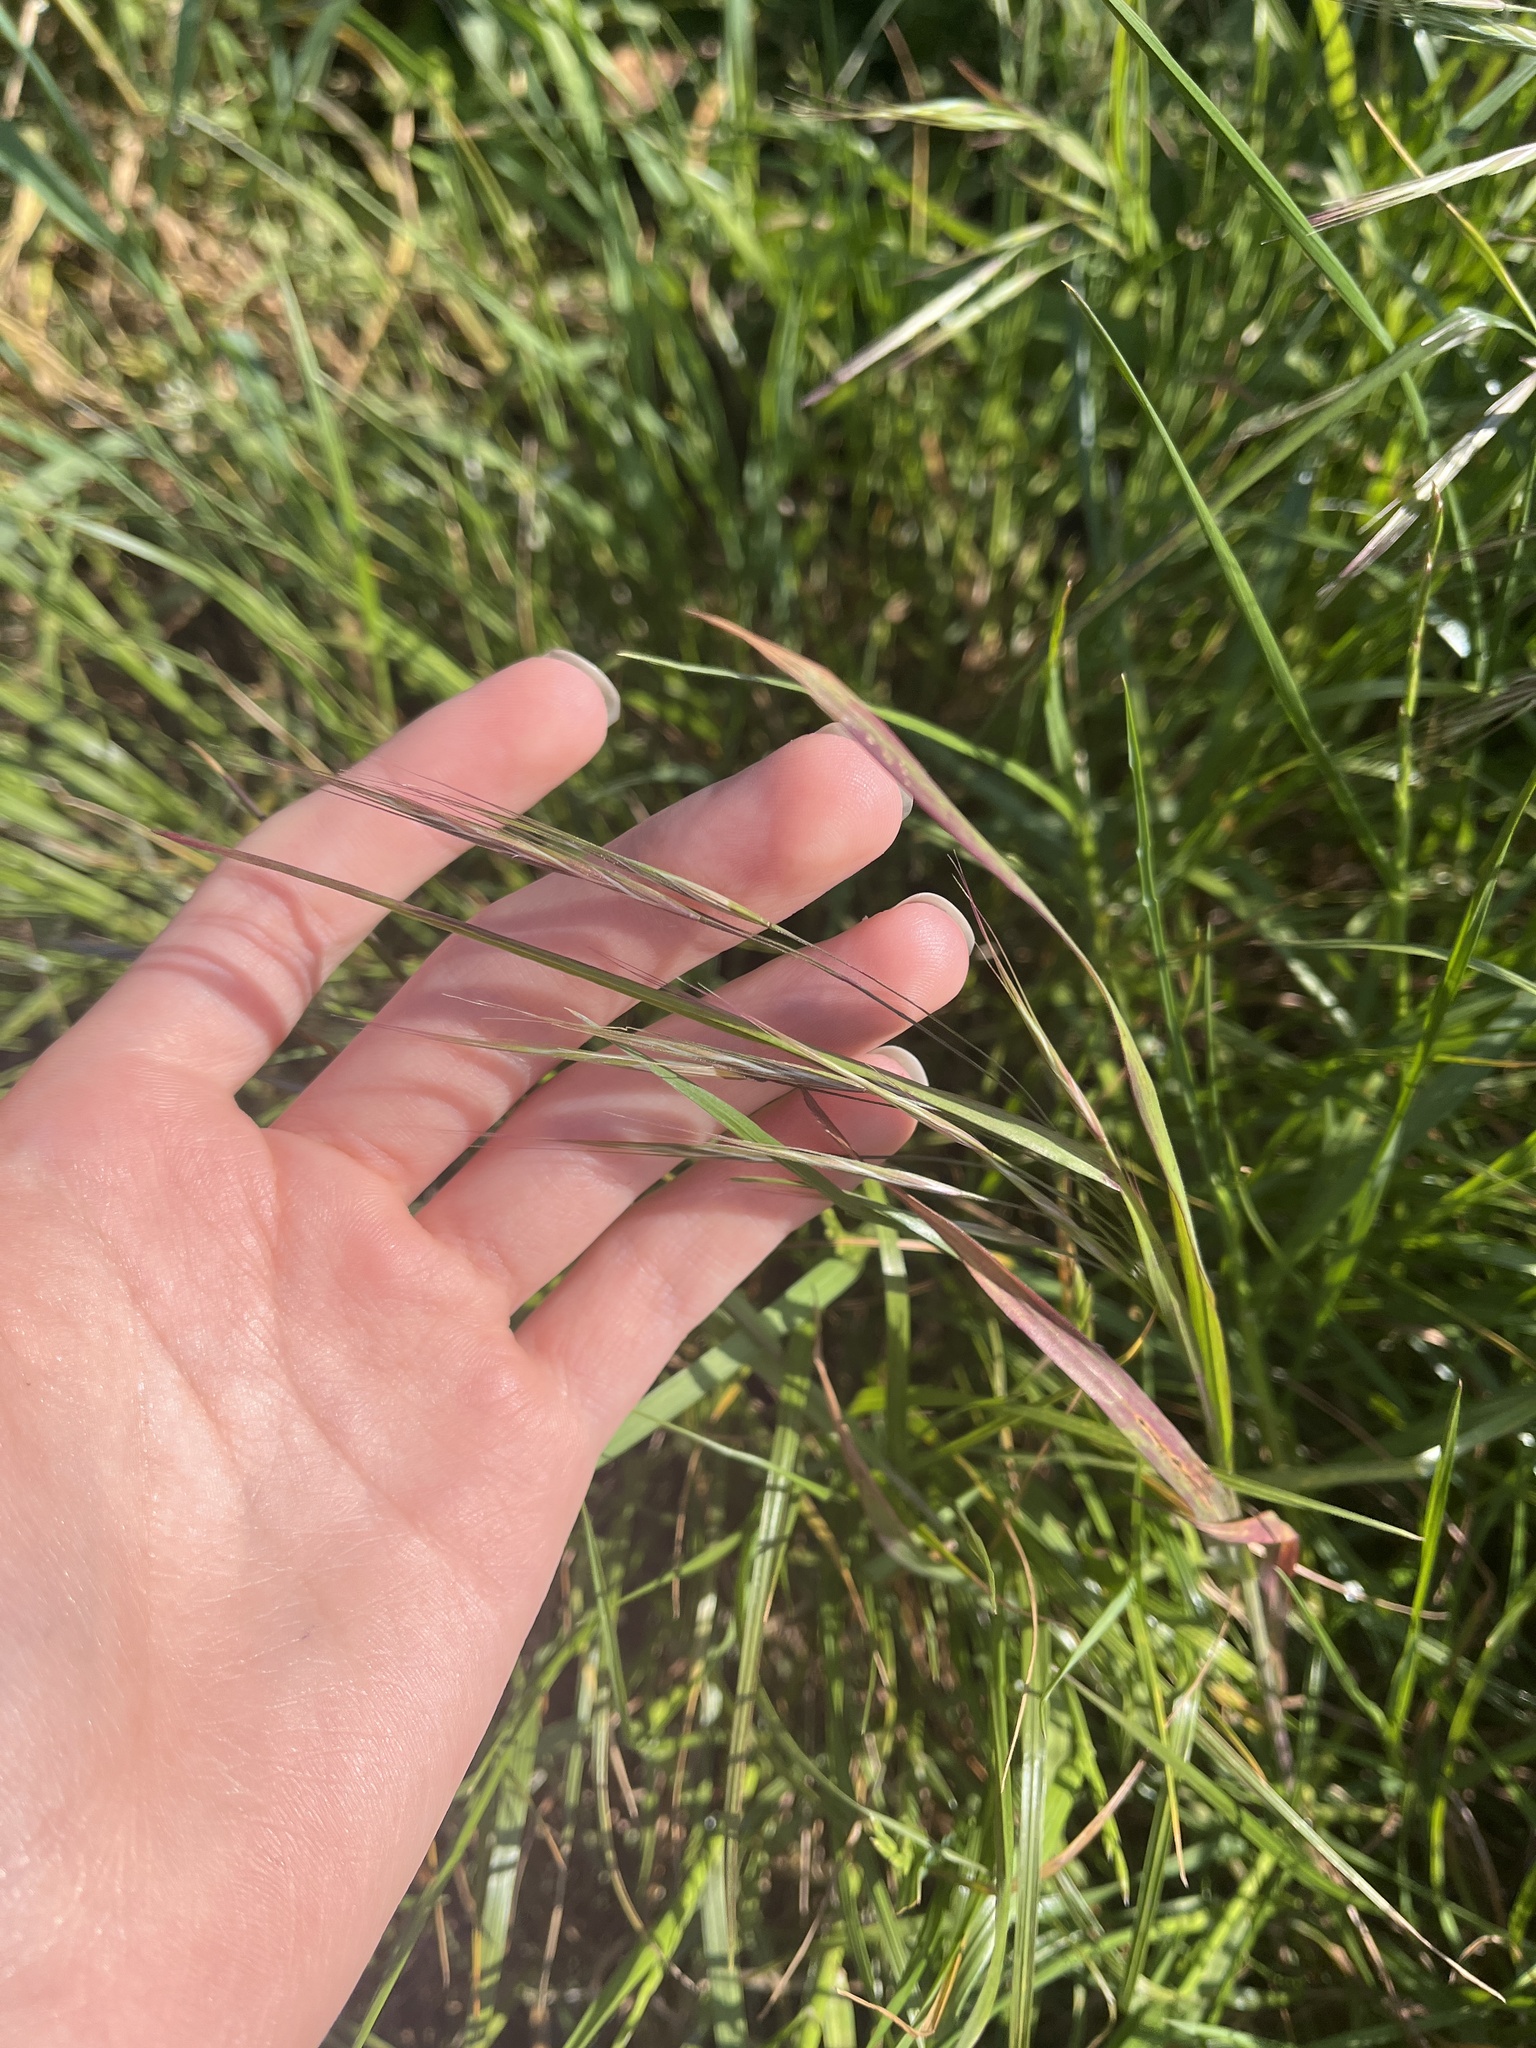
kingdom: Plantae
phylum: Tracheophyta
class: Liliopsida
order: Poales
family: Poaceae
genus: Bromus
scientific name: Bromus sterilis
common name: Poverty brome
